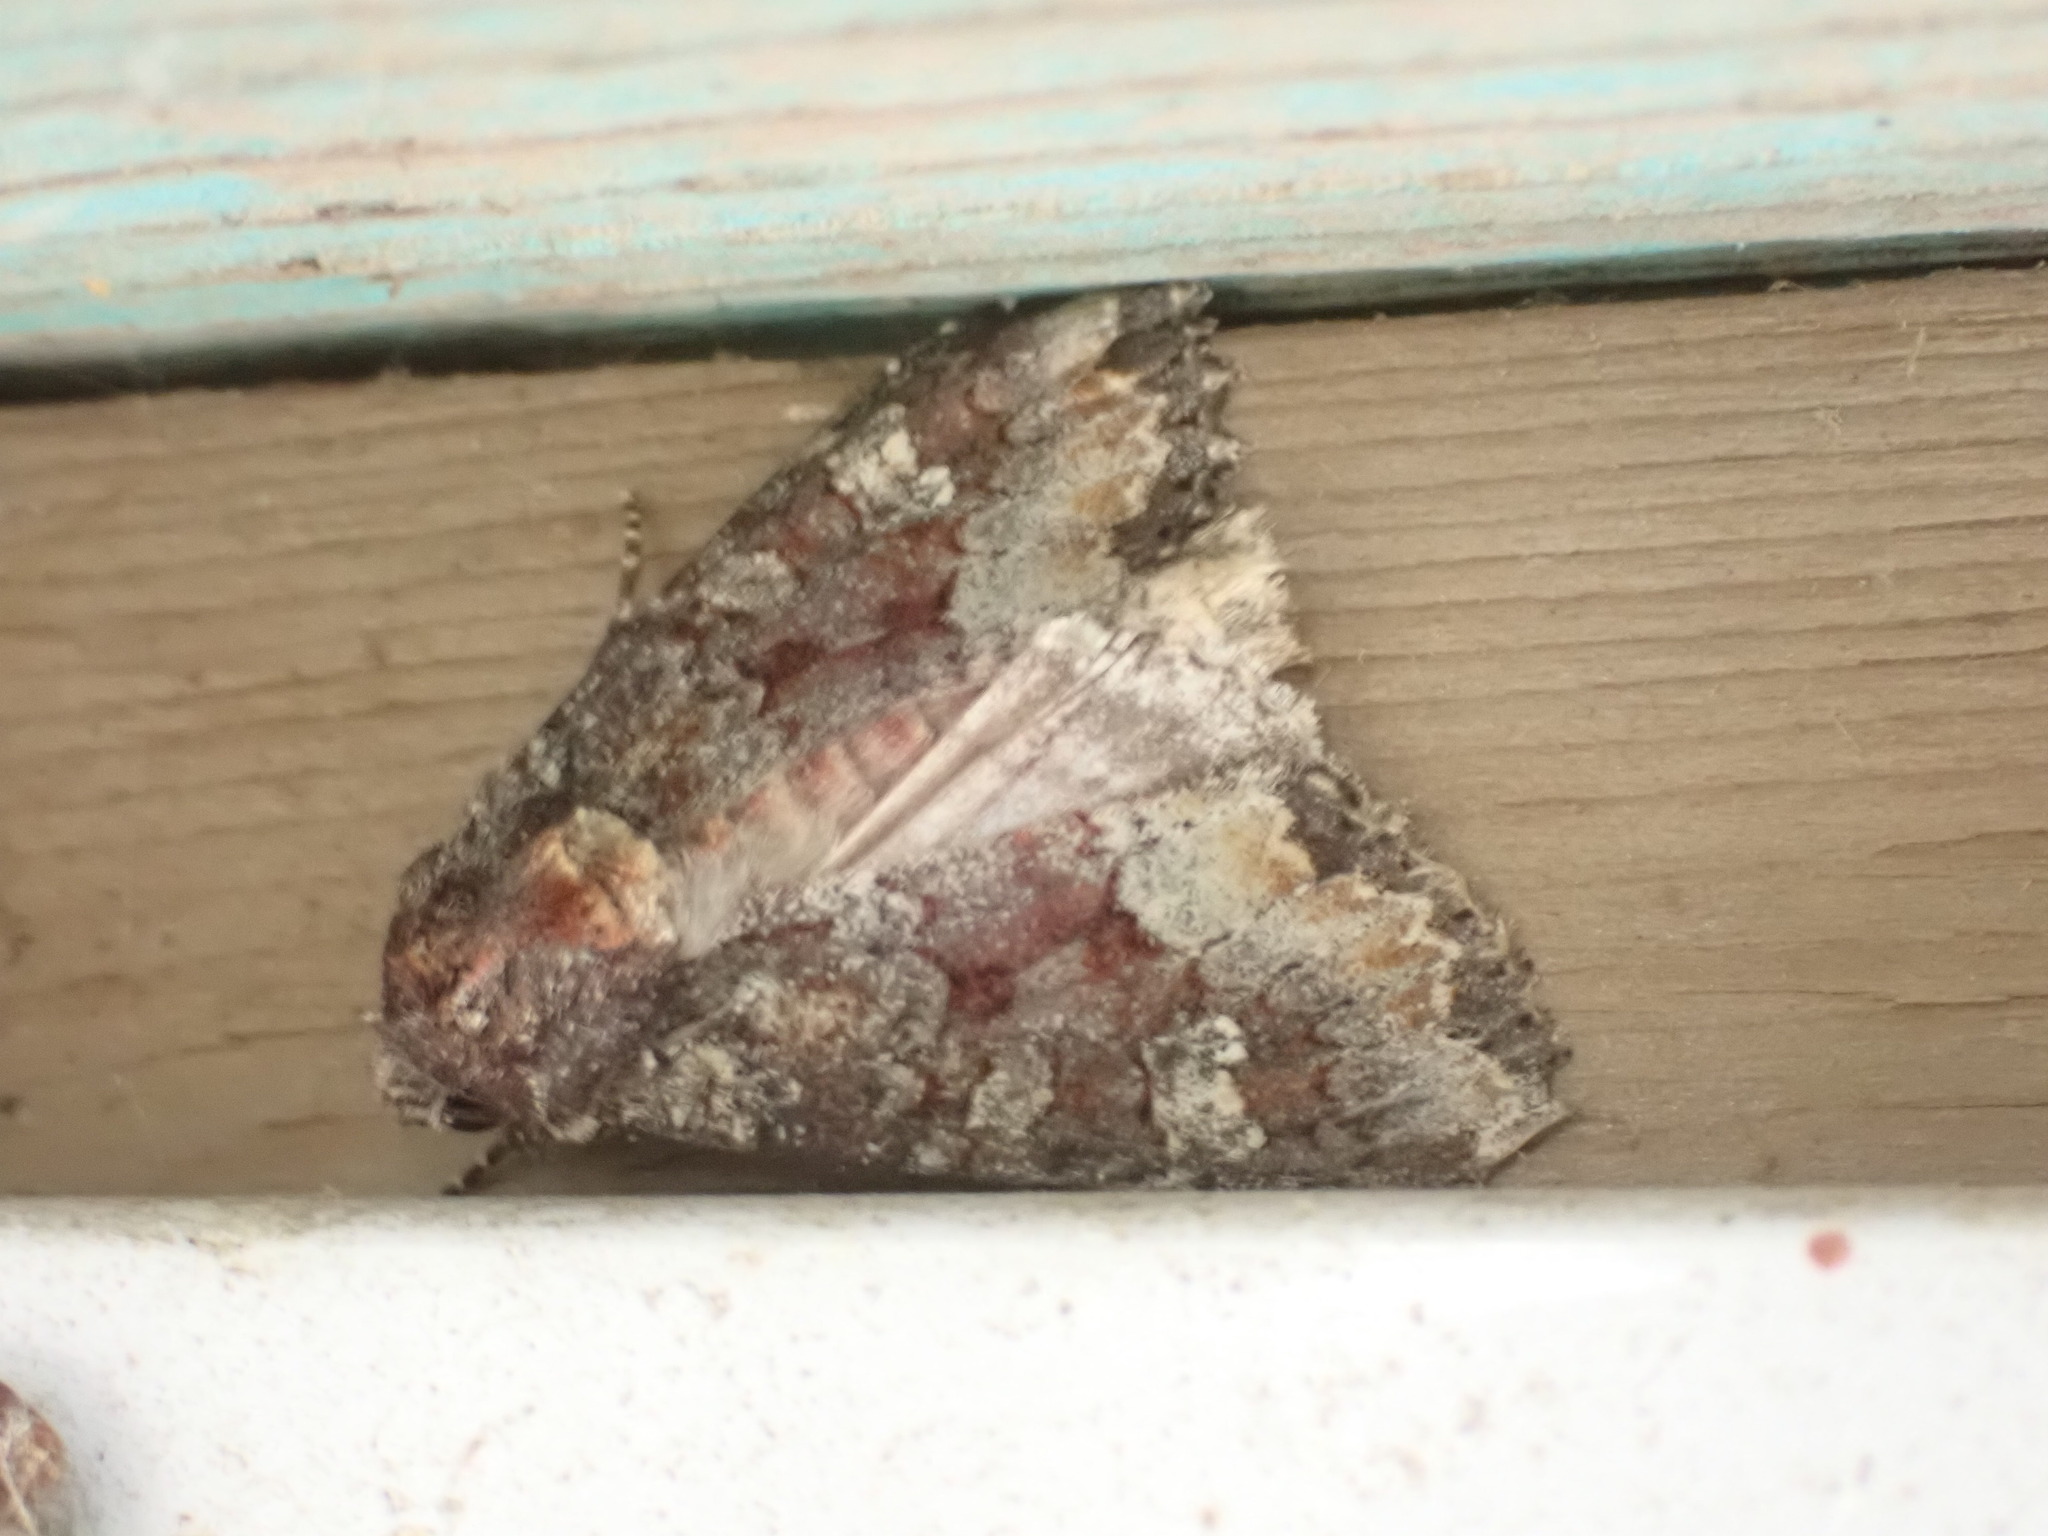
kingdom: Animalia
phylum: Arthropoda
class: Insecta
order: Lepidoptera
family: Noctuidae
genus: Apamea
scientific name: Apamea amputatrix
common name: Yellow-headed cutworm moth
